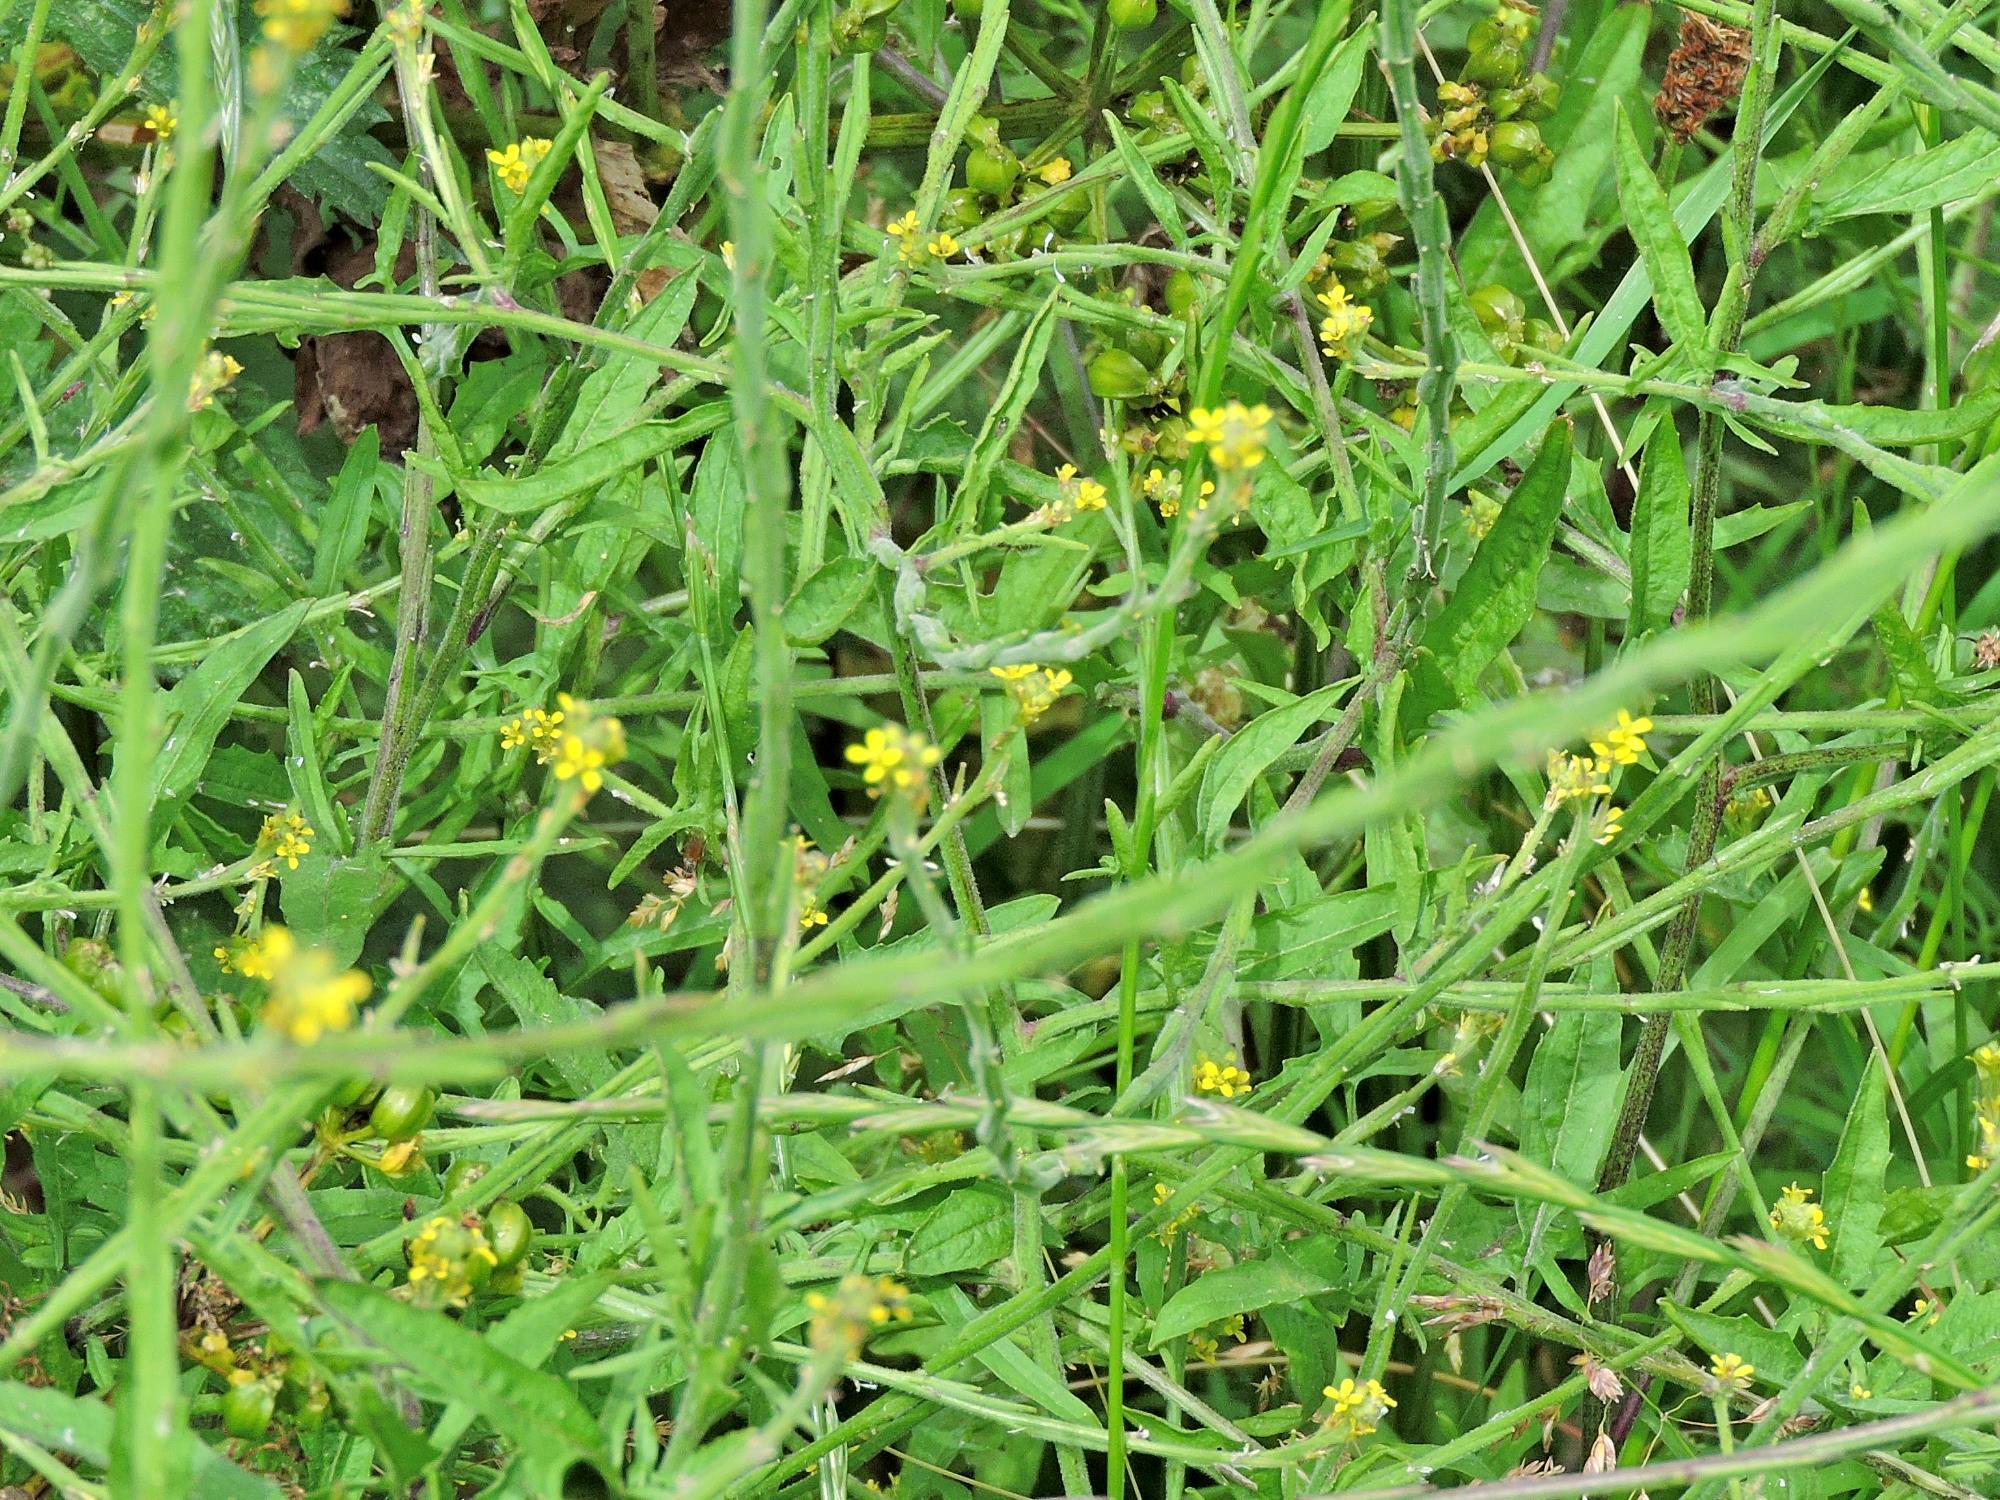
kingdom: Plantae
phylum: Tracheophyta
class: Magnoliopsida
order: Brassicales
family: Brassicaceae
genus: Sisymbrium
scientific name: Sisymbrium officinale
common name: Hedge mustard
